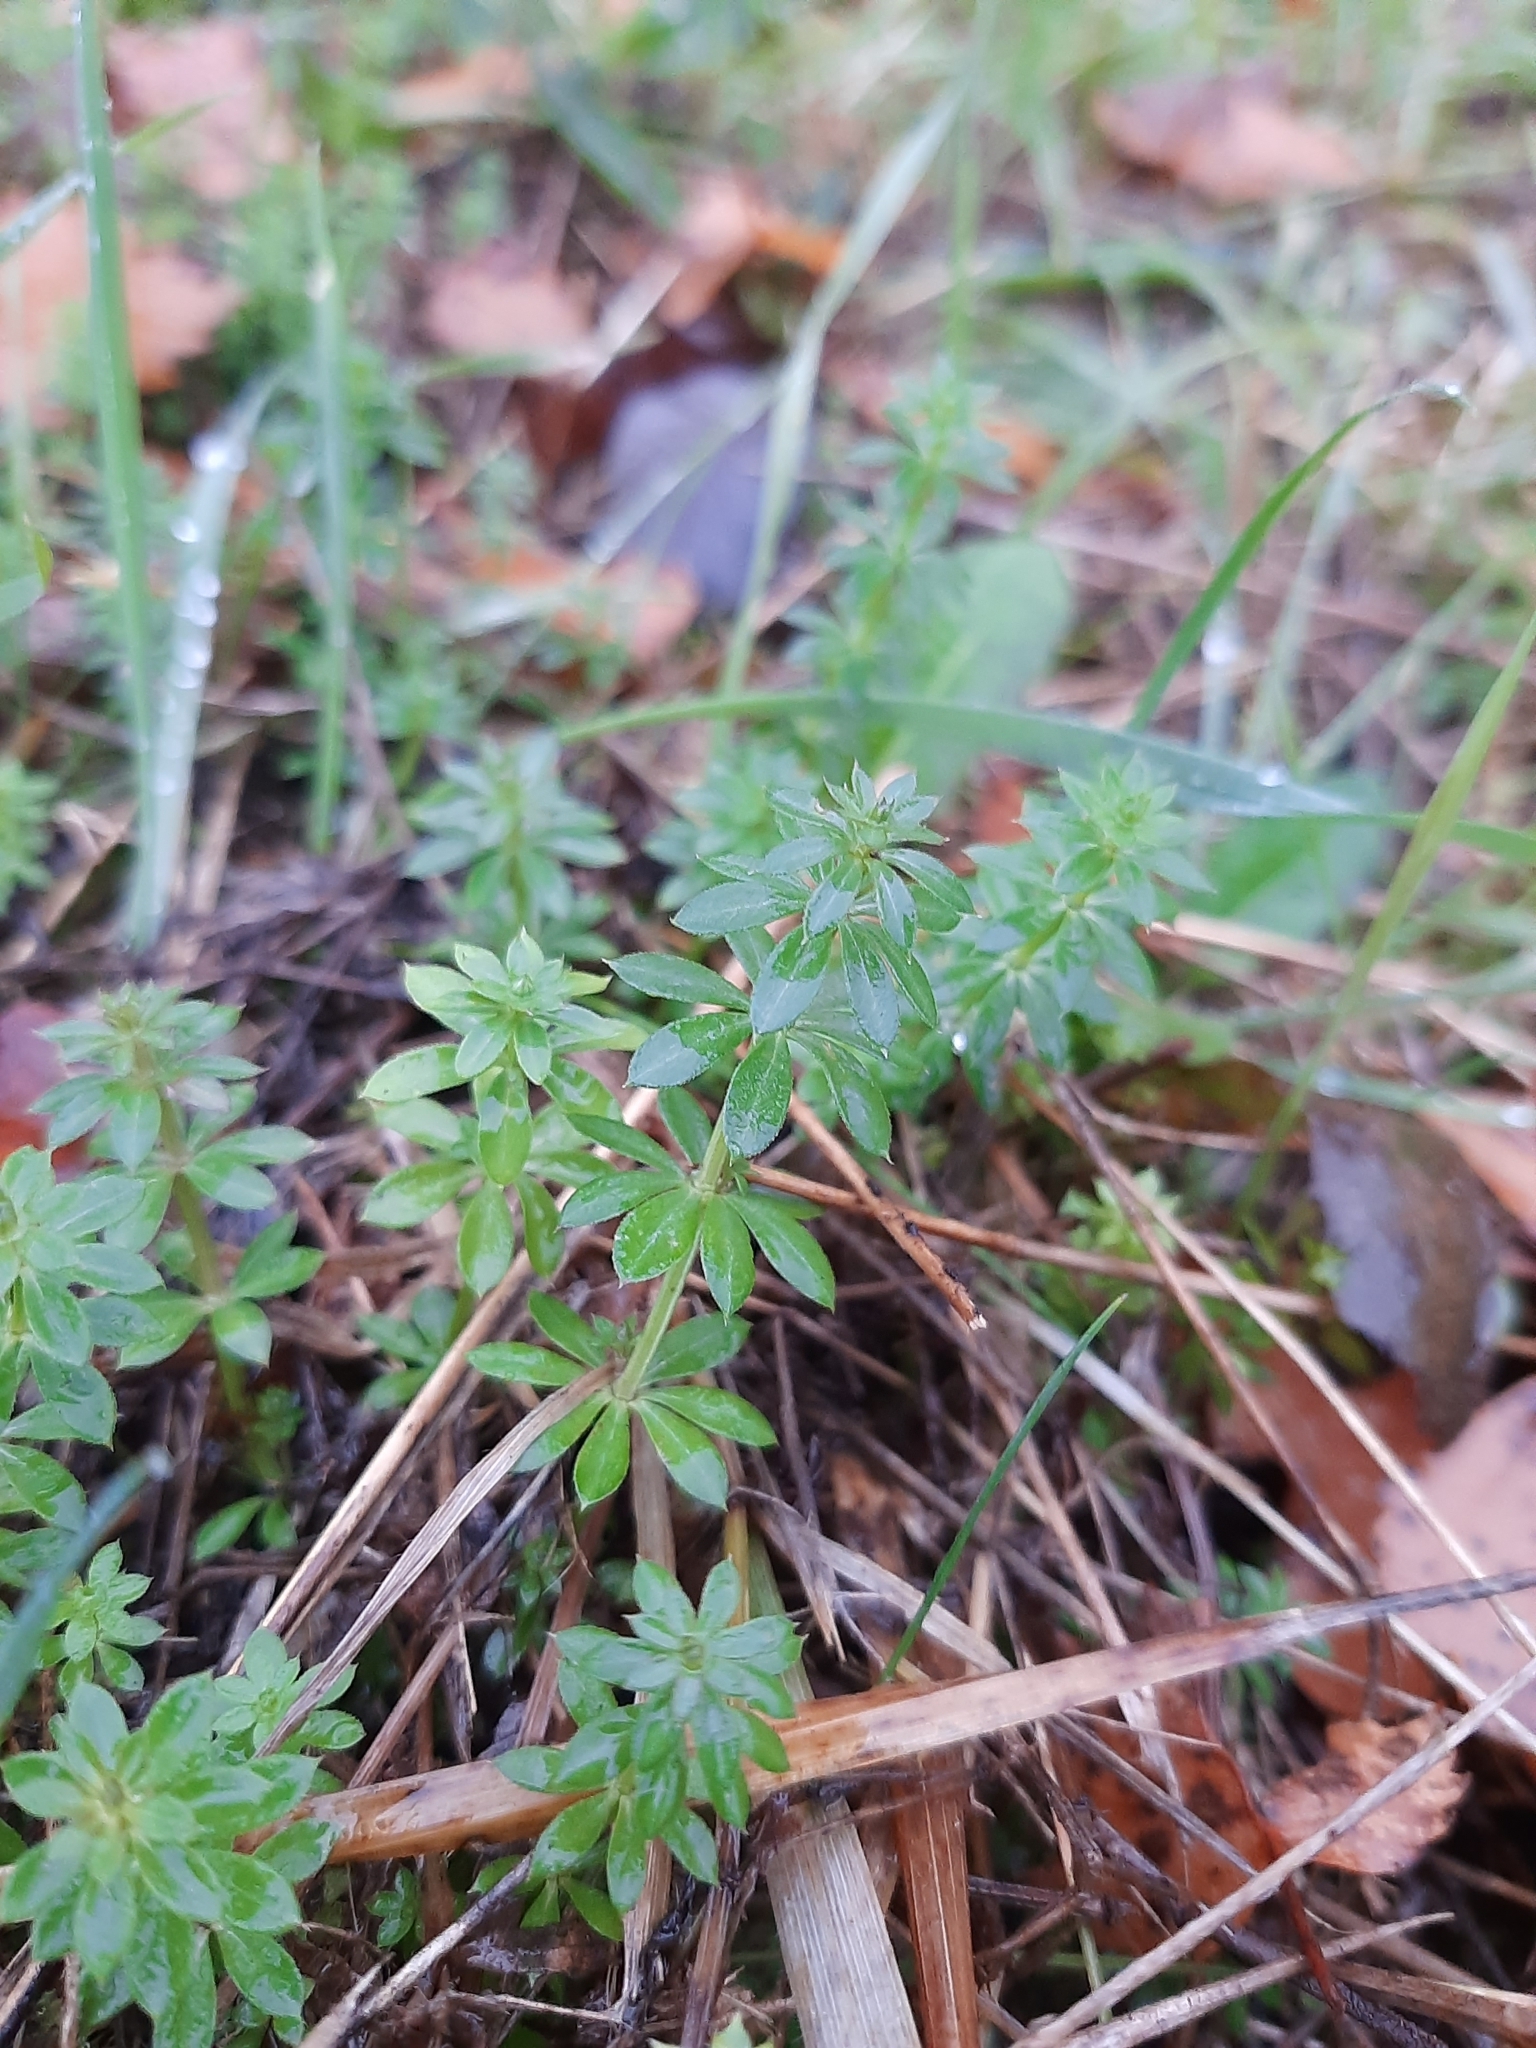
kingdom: Plantae
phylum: Tracheophyta
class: Magnoliopsida
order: Gentianales
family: Rubiaceae
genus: Galium
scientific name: Galium
